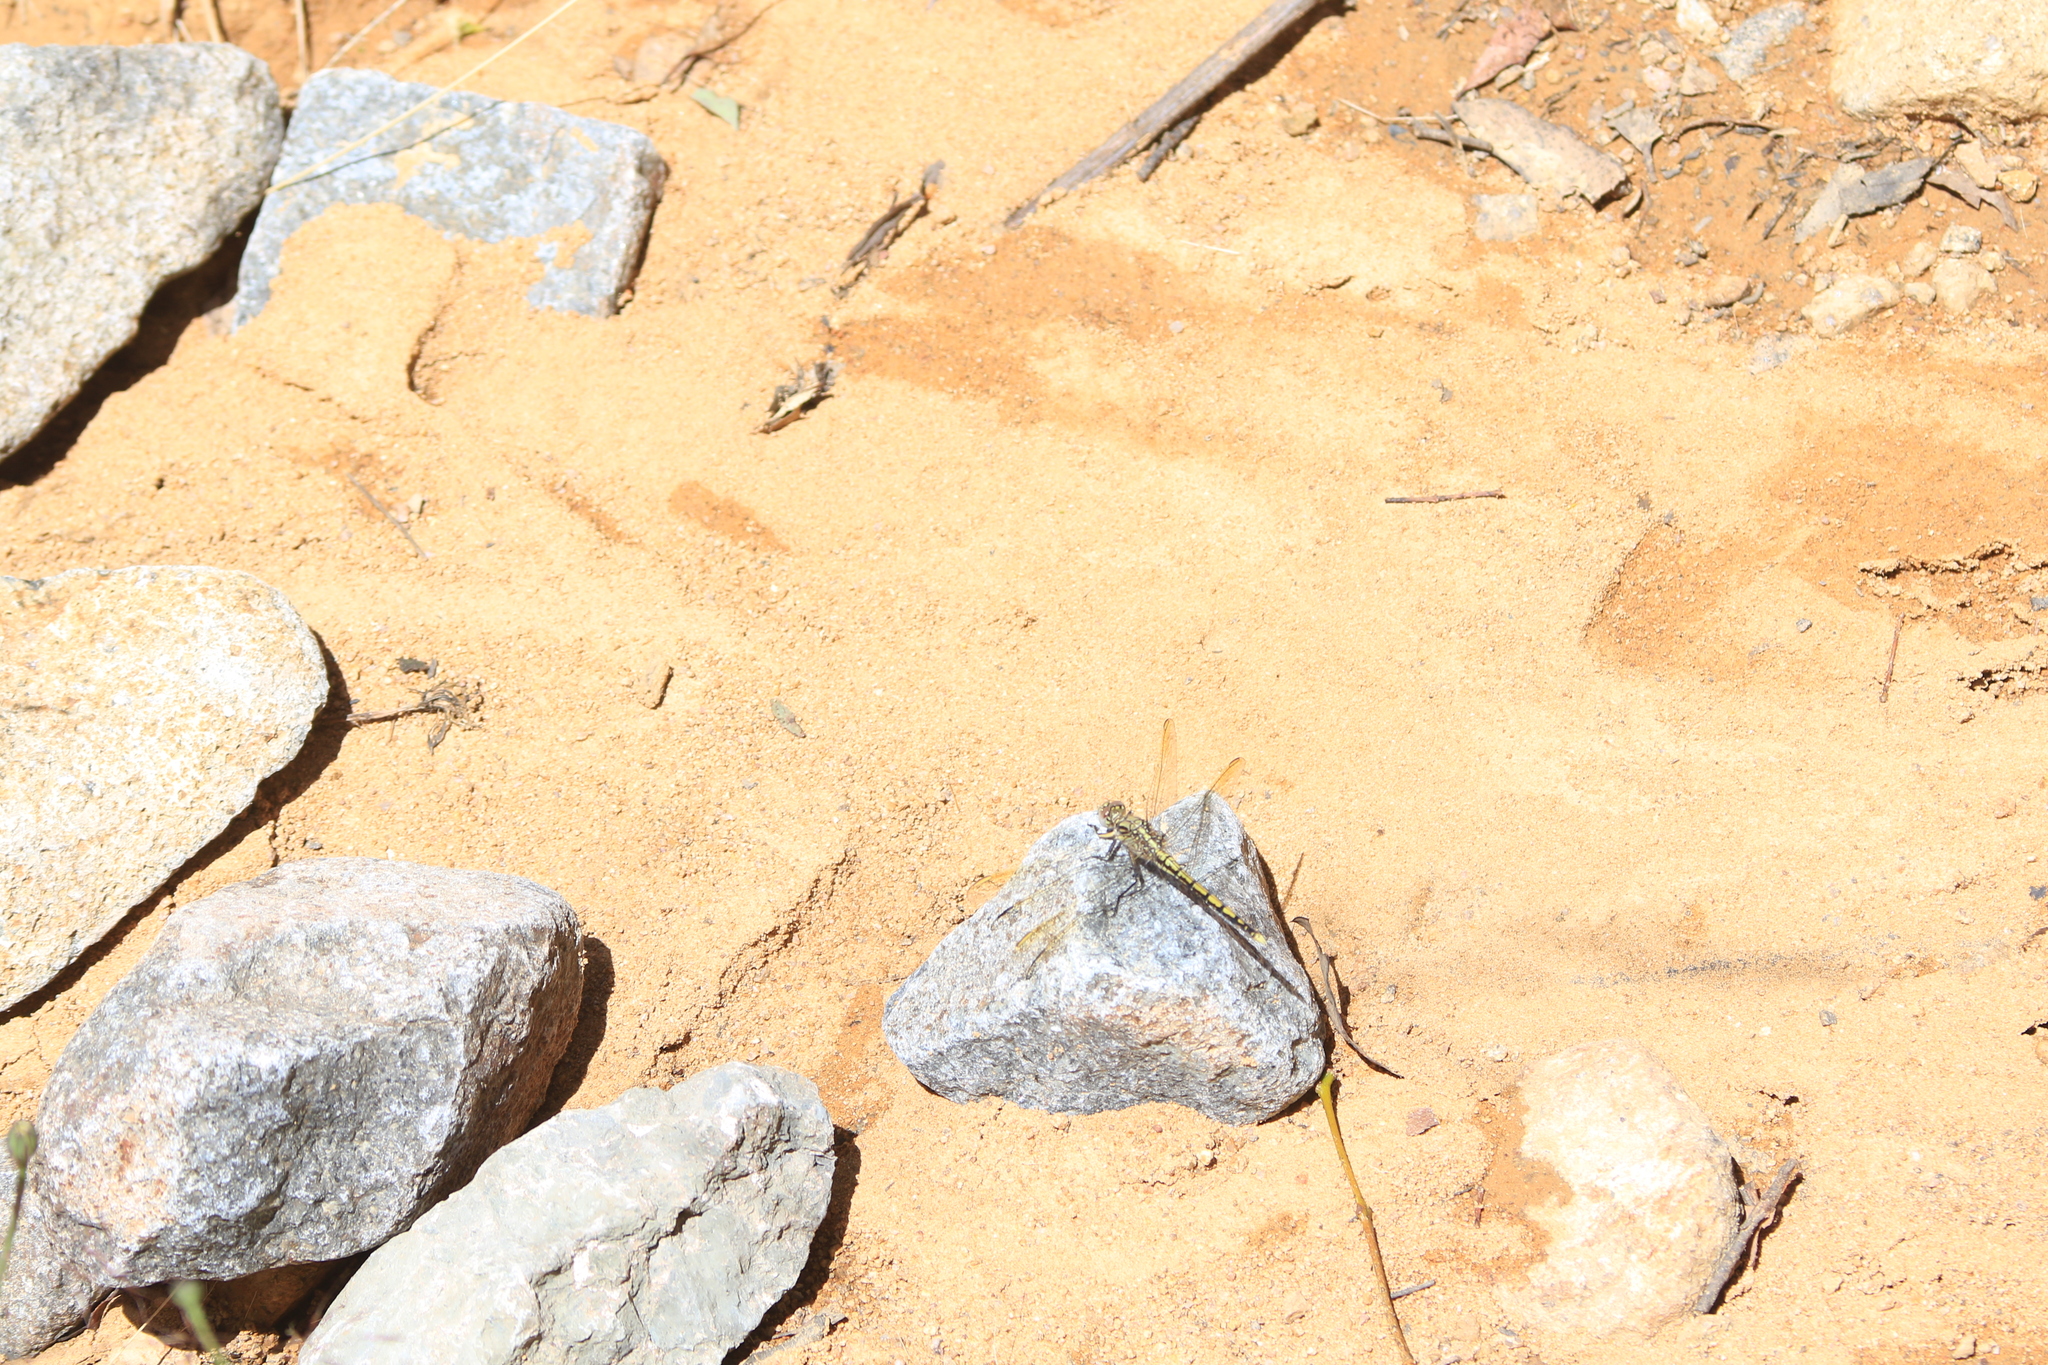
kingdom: Animalia
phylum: Arthropoda
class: Insecta
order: Odonata
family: Libellulidae
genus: Orthetrum
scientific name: Orthetrum caledonicum
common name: Blue skimmer
